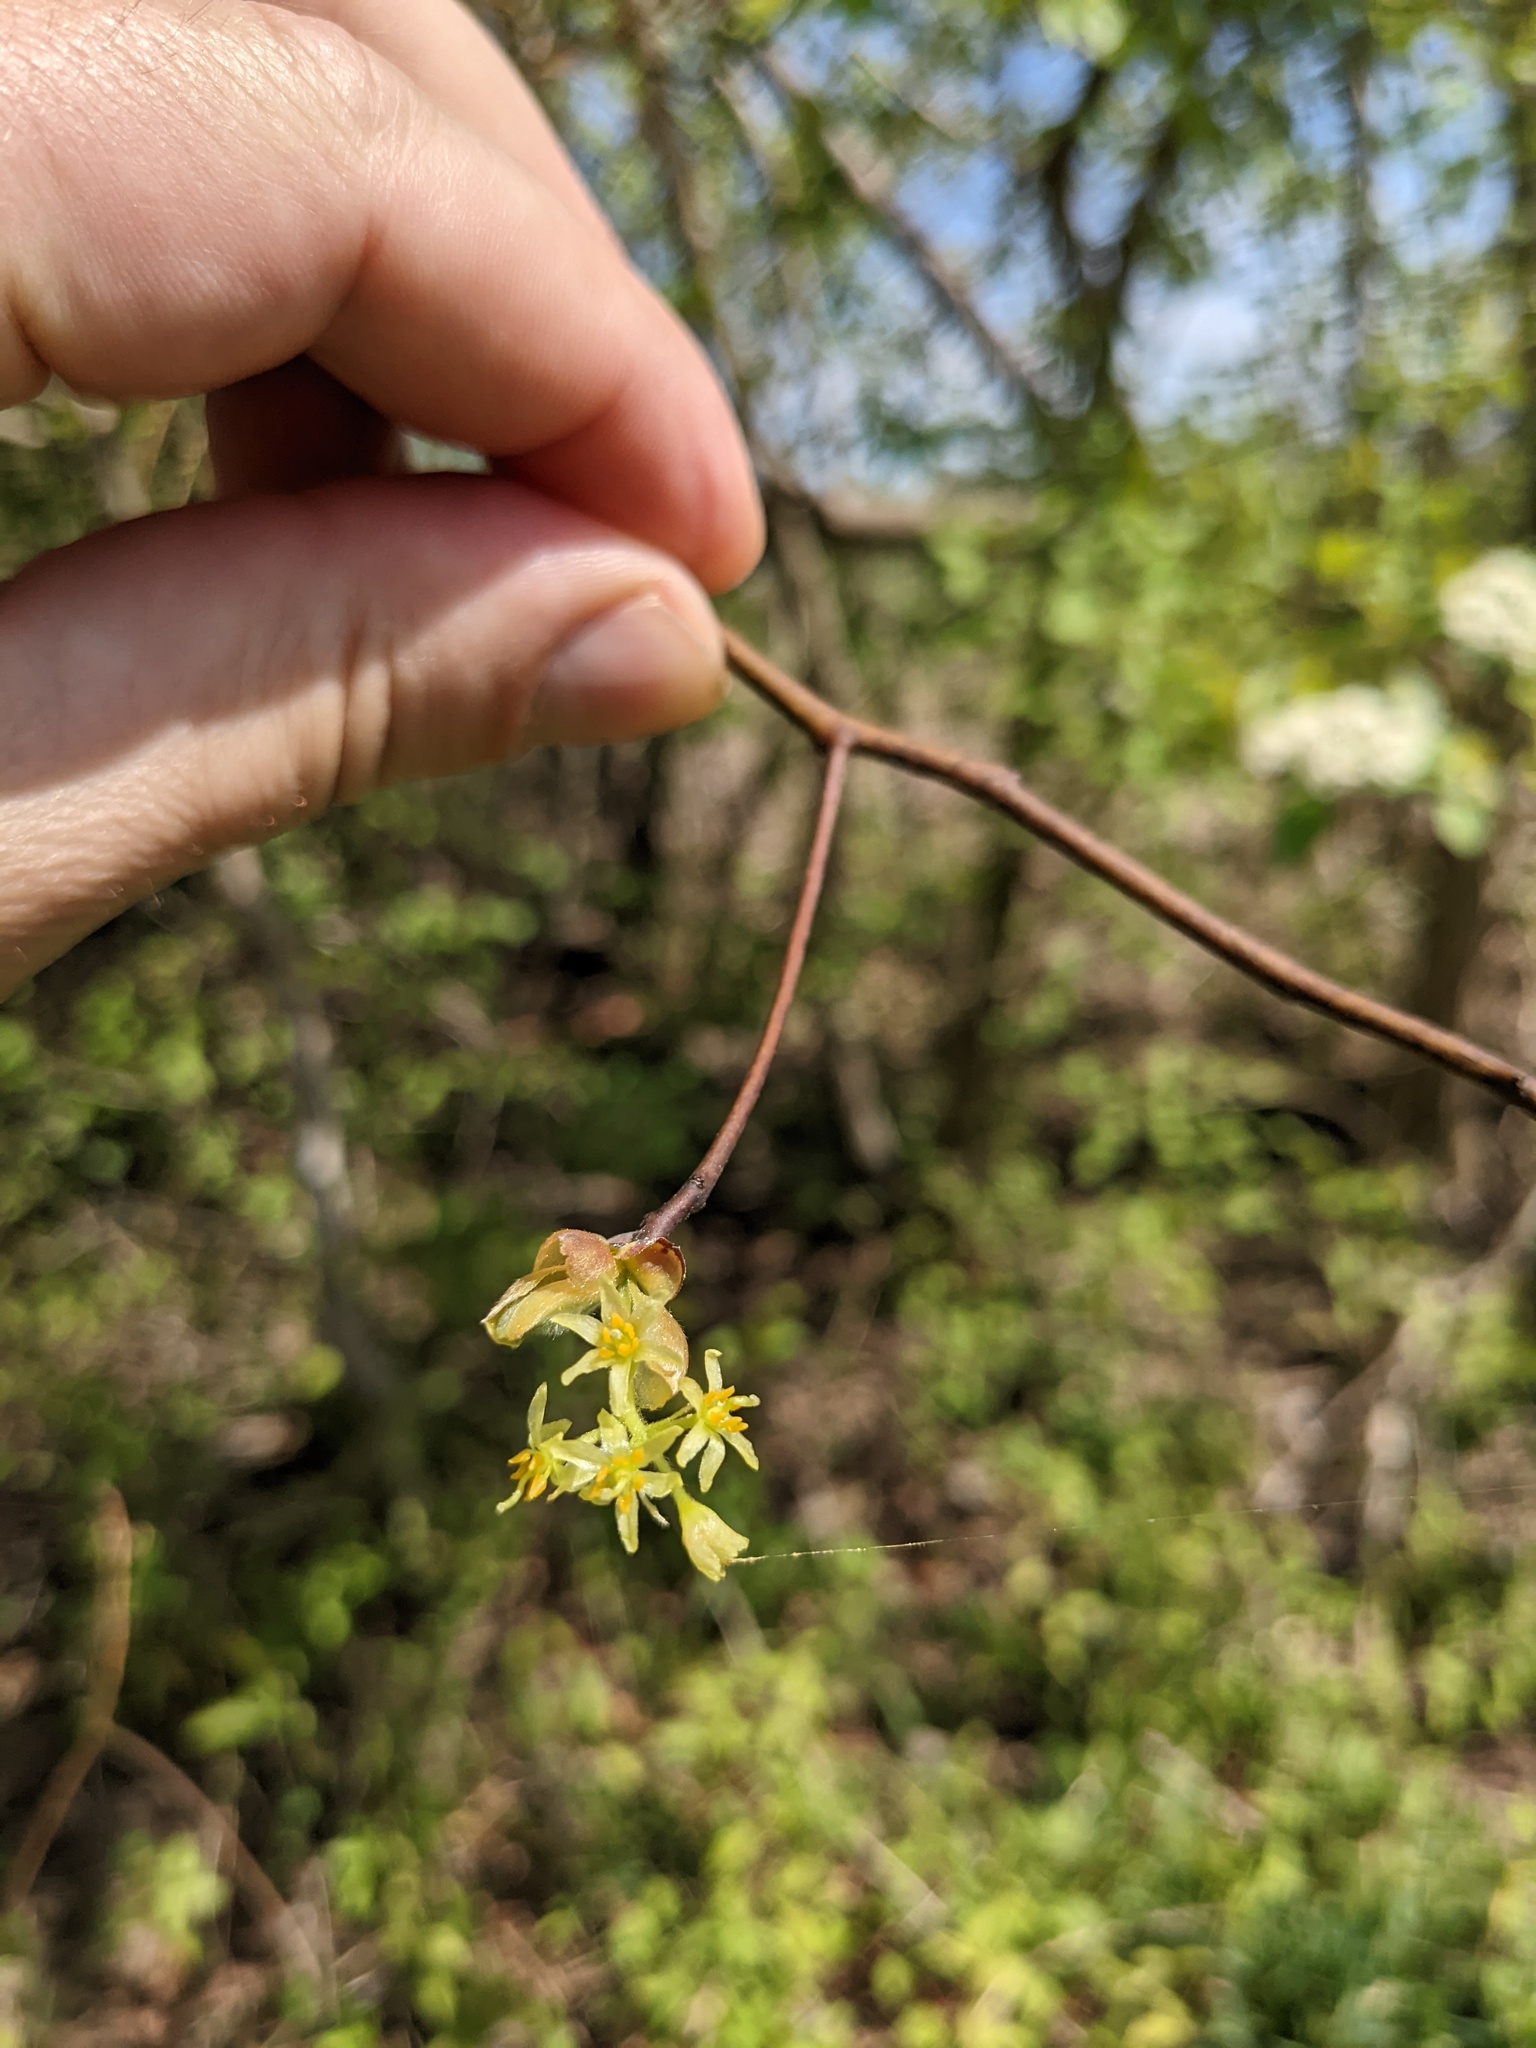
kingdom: Plantae
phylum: Tracheophyta
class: Magnoliopsida
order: Laurales
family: Lauraceae
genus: Sassafras
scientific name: Sassafras albidum
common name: Sassafras
